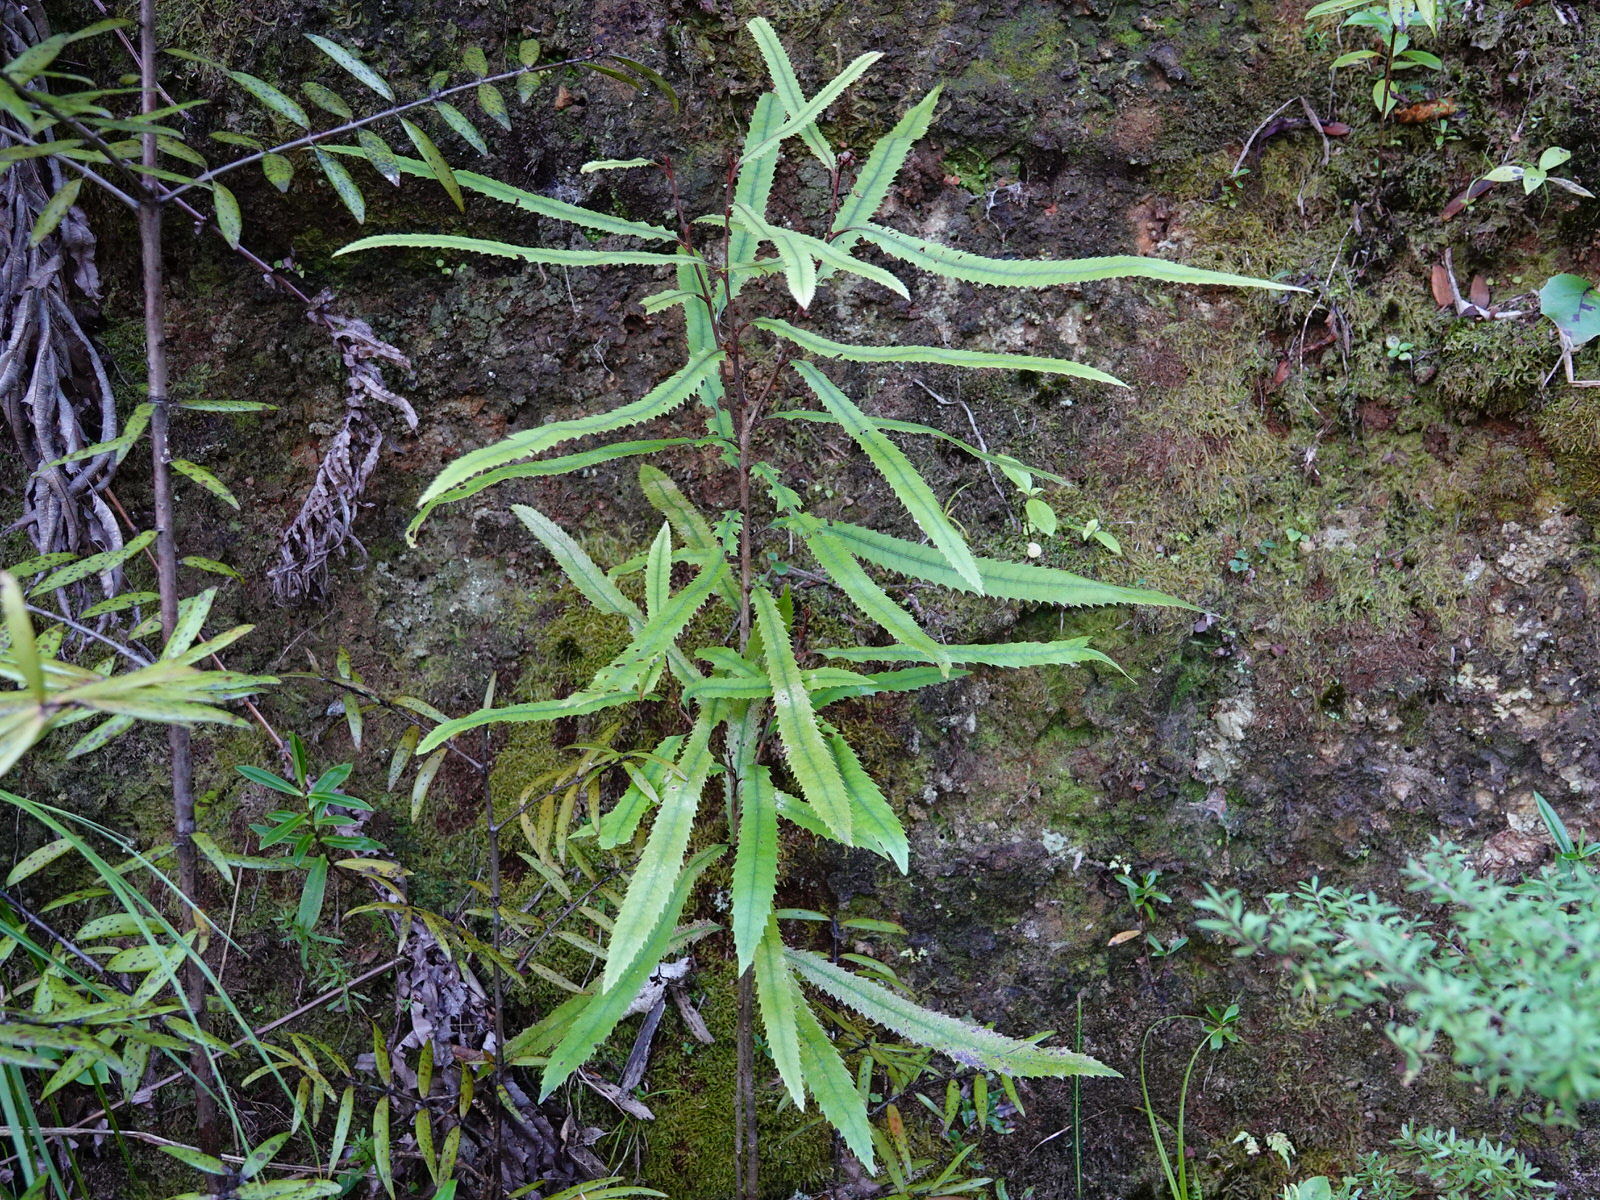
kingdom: Plantae
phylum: Tracheophyta
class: Magnoliopsida
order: Proteales
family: Proteaceae
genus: Knightia
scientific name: Knightia excelsa
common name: New zealand-honeysuckle
